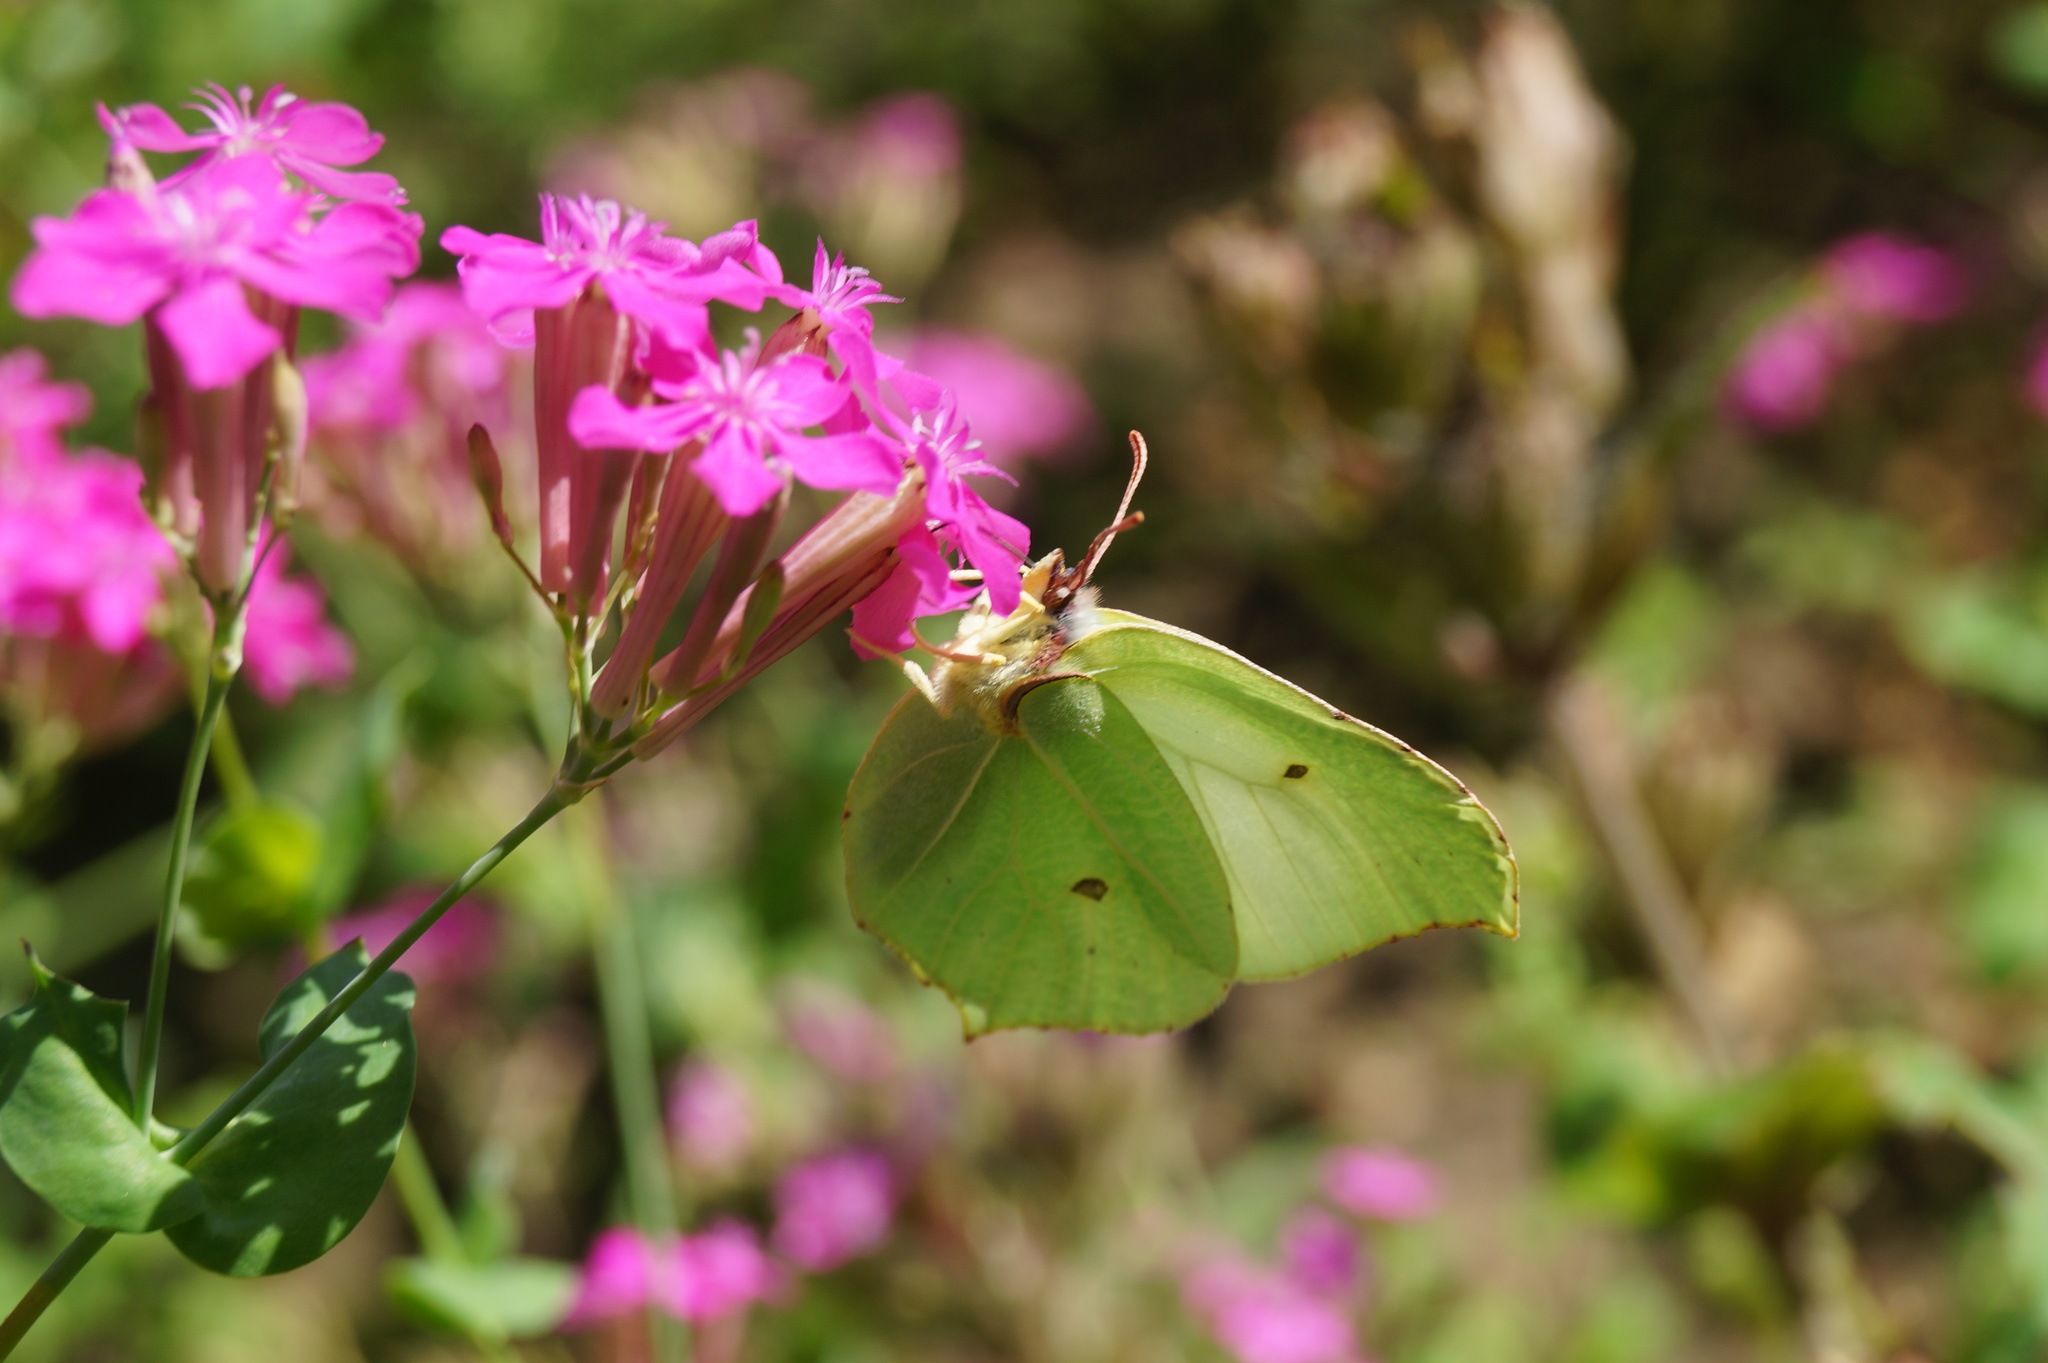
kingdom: Animalia
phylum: Arthropoda
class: Insecta
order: Lepidoptera
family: Pieridae
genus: Gonepteryx
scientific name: Gonepteryx rhamni
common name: Brimstone
